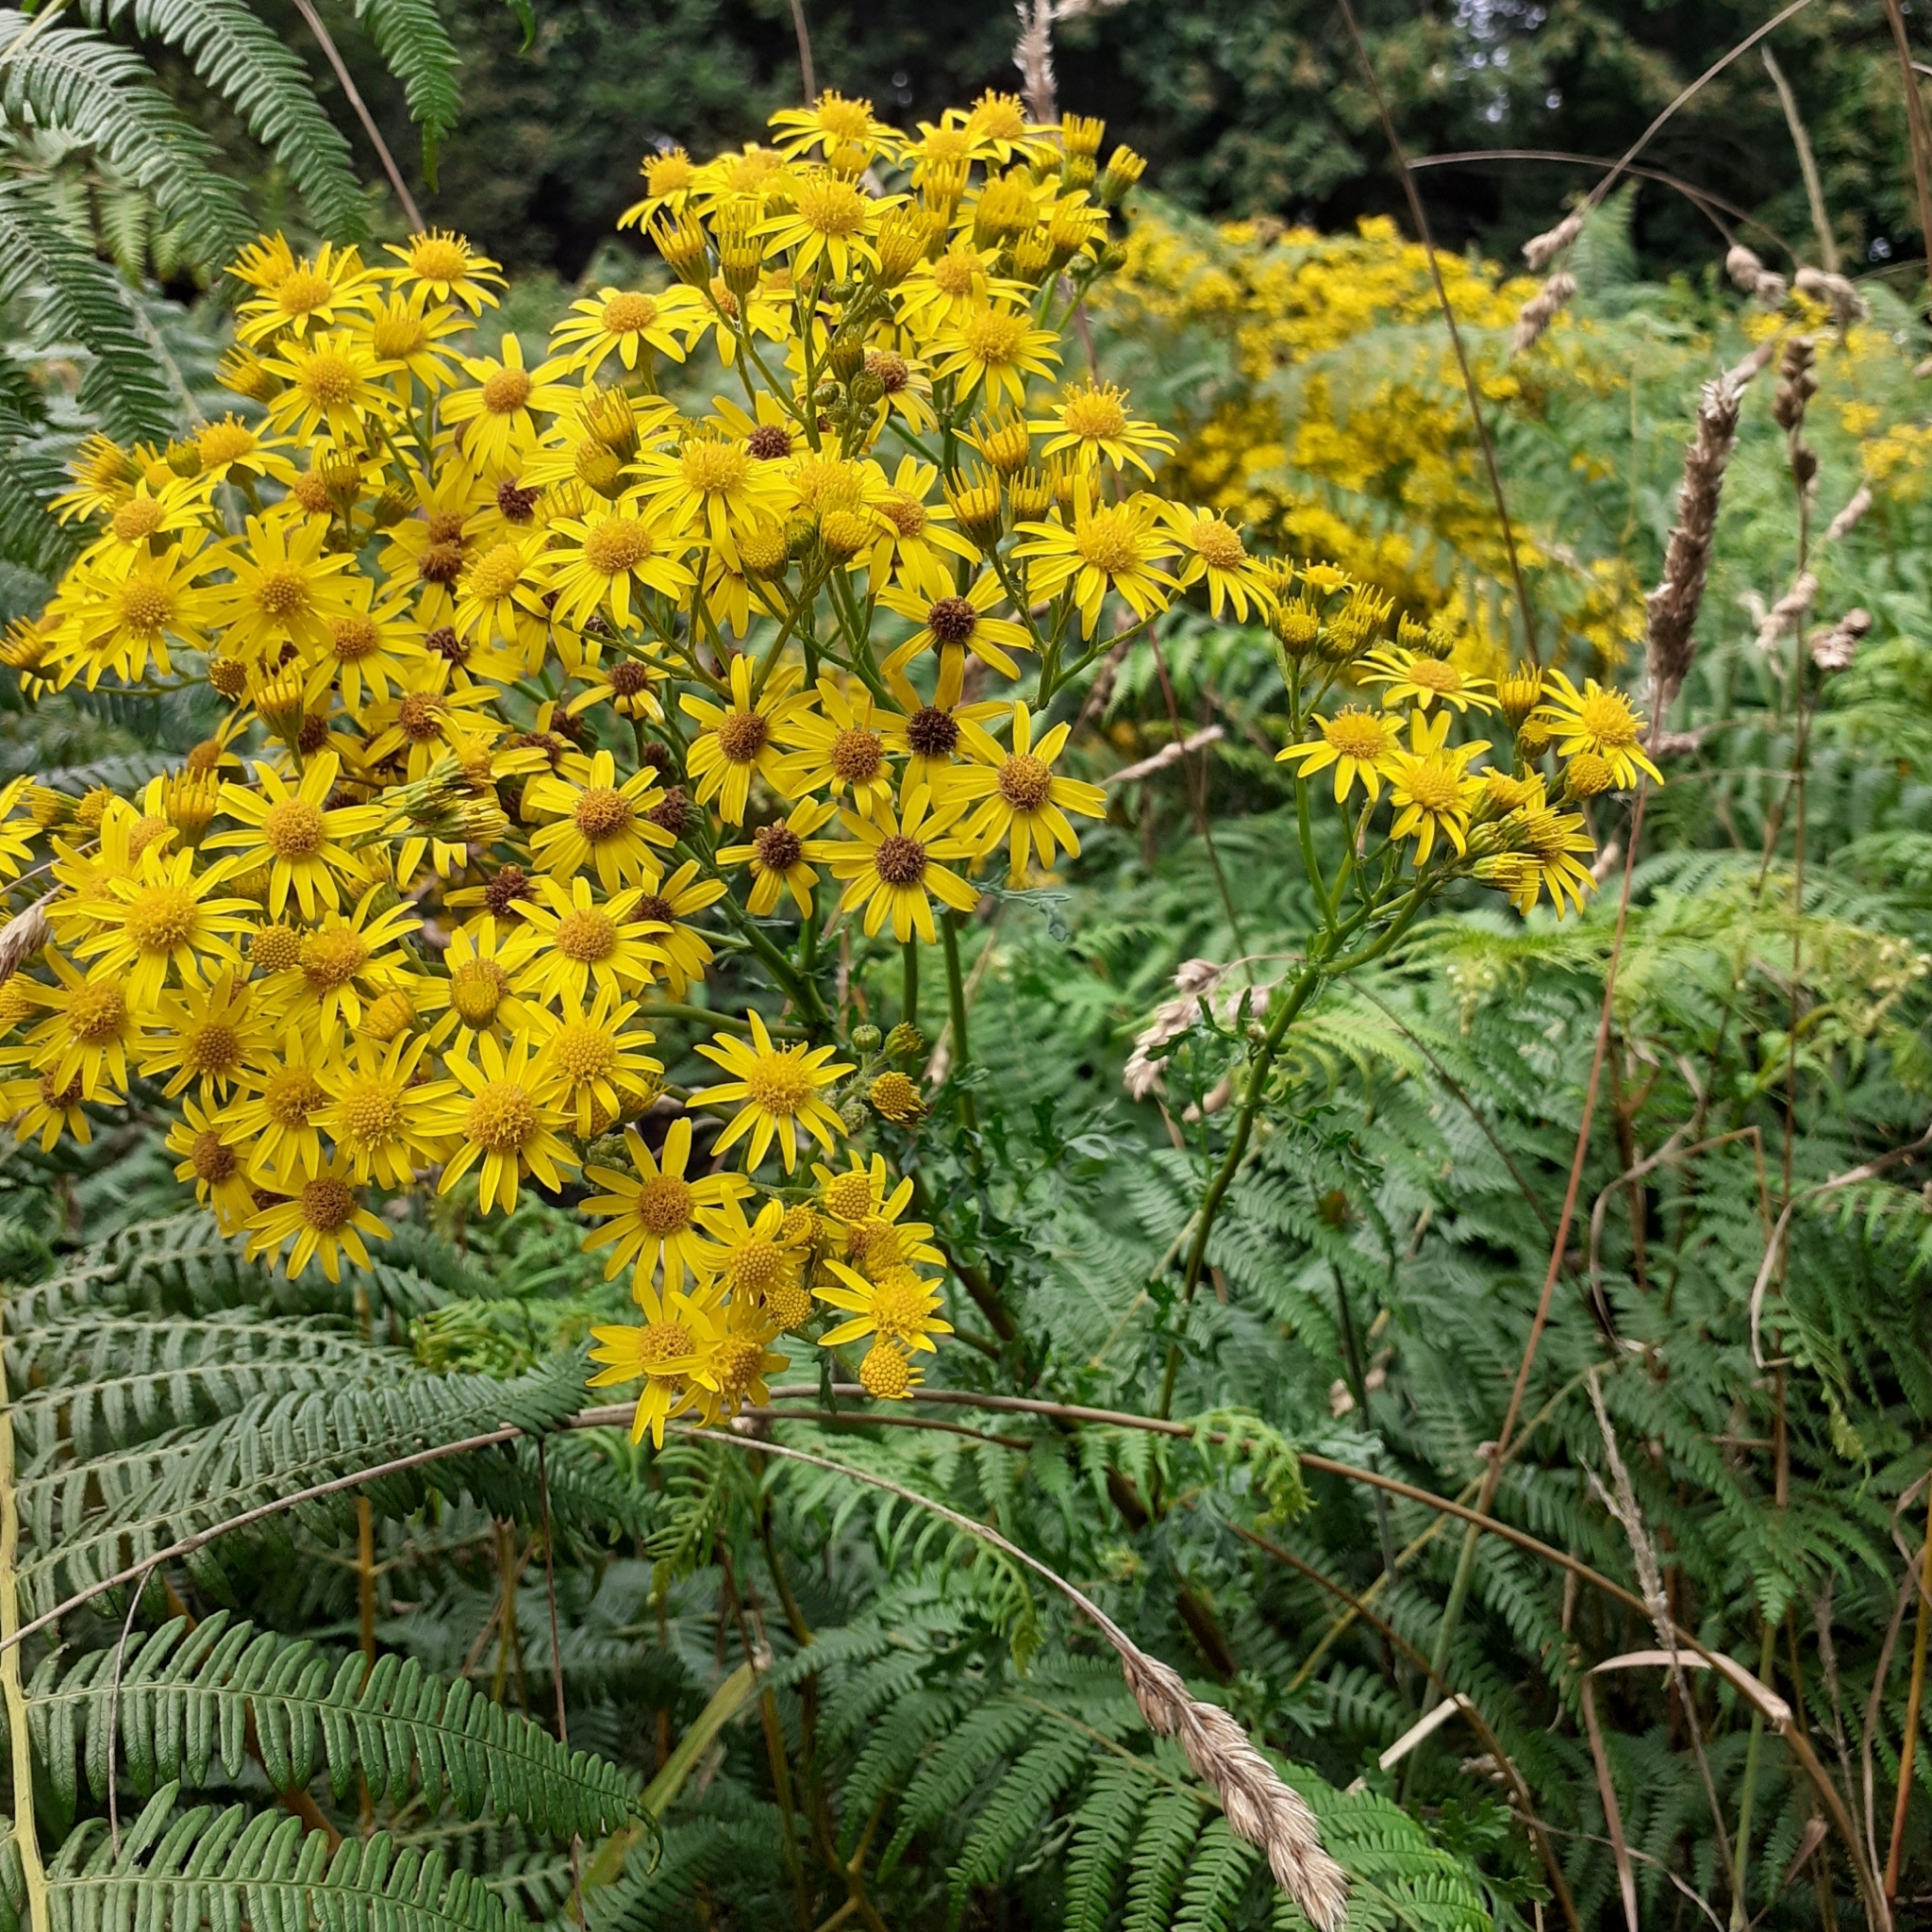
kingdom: Plantae
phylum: Tracheophyta
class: Magnoliopsida
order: Asterales
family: Asteraceae
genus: Jacobaea
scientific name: Jacobaea vulgaris
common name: Stinking willie
